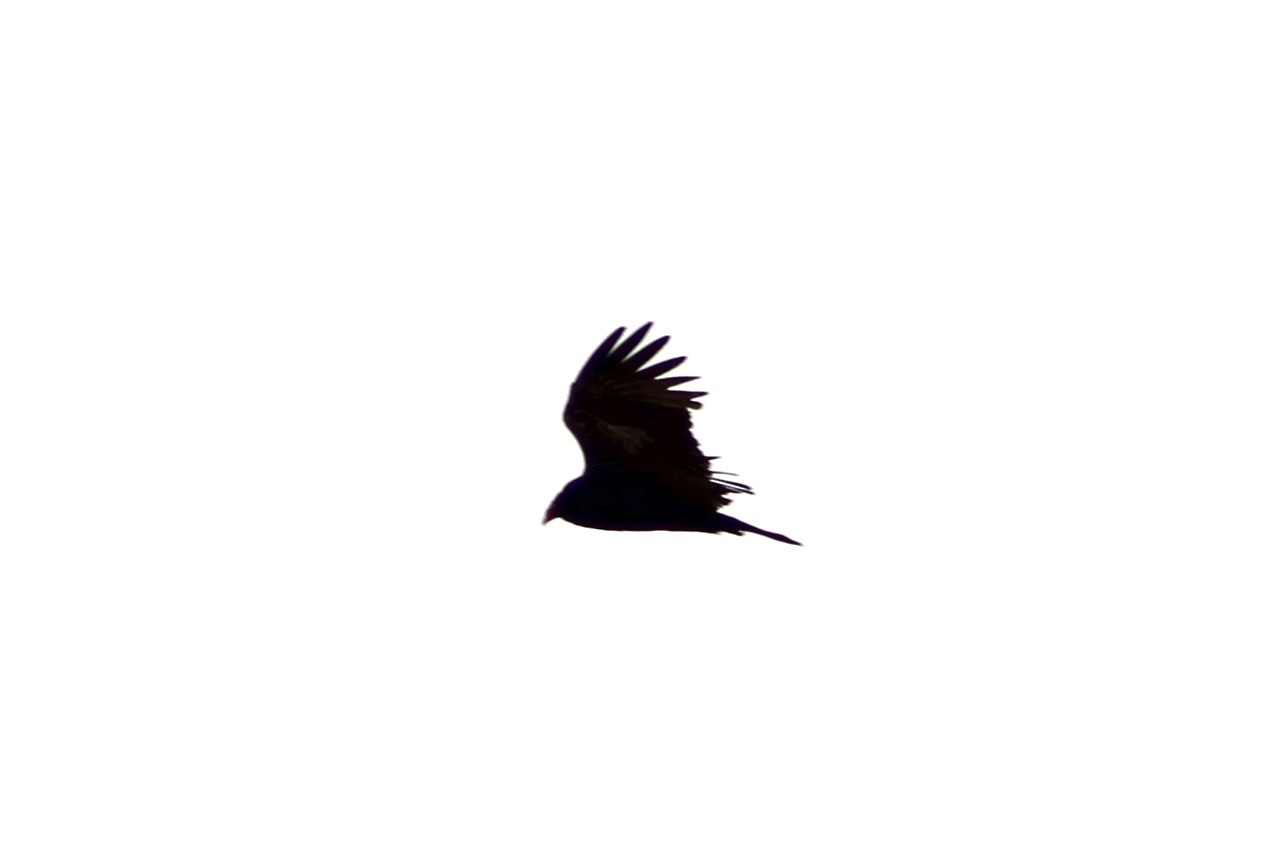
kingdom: Animalia
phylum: Chordata
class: Aves
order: Accipitriformes
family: Cathartidae
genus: Cathartes
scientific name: Cathartes aura
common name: Turkey vulture
